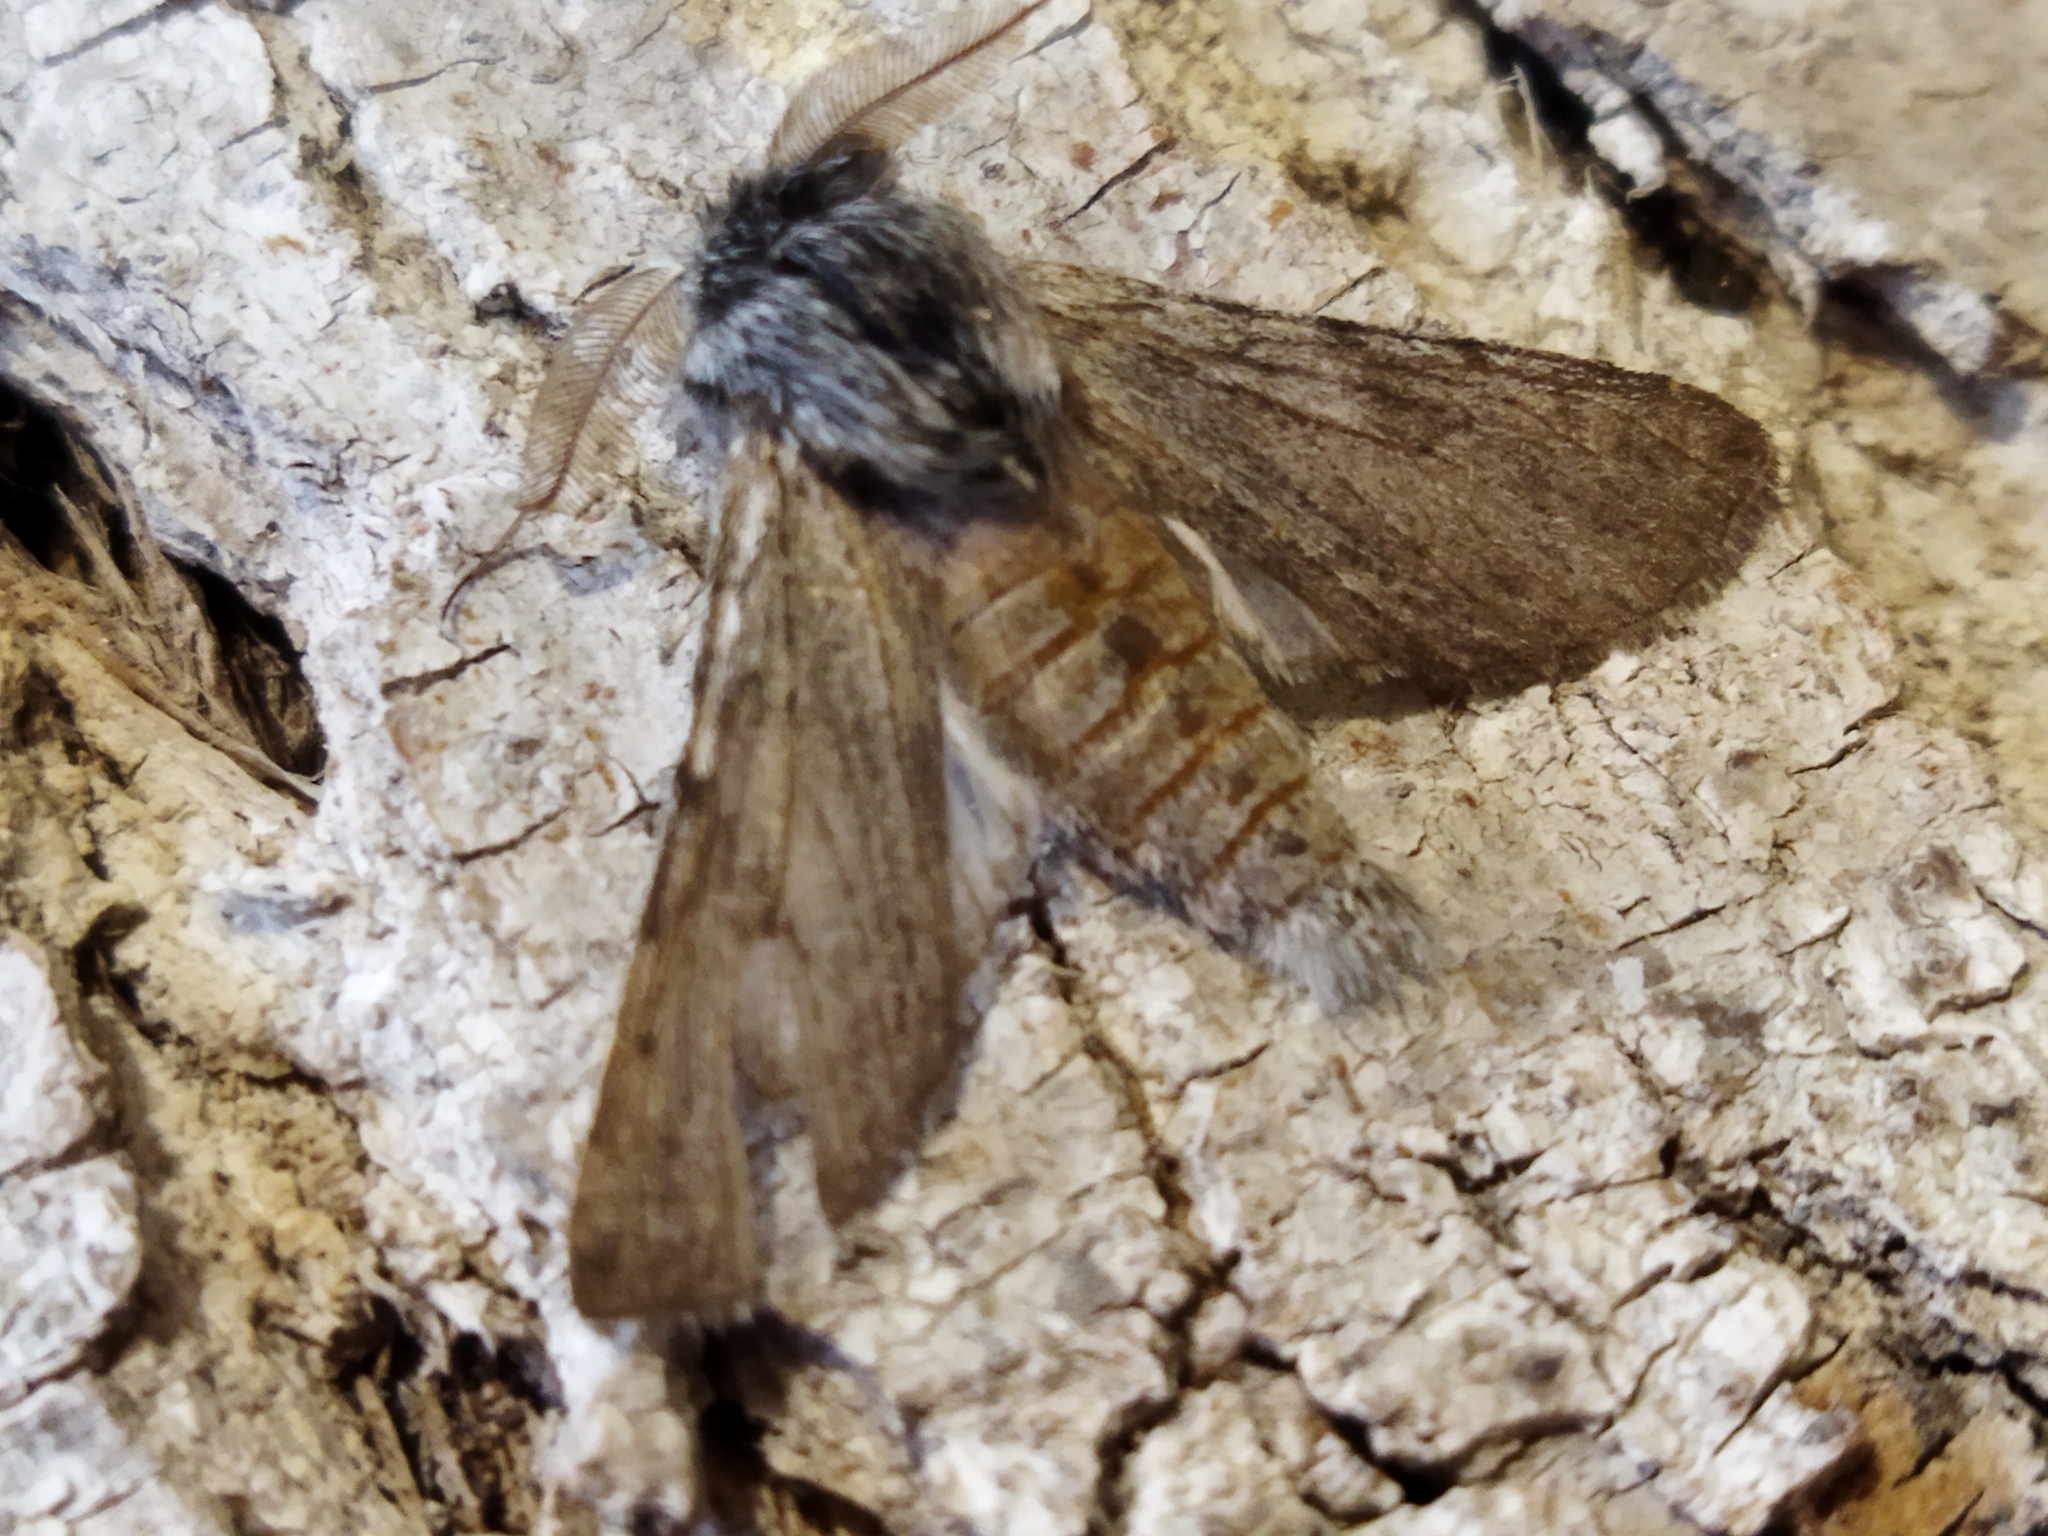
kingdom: Animalia
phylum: Arthropoda
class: Insecta
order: Lepidoptera
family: Notodontidae
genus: Dicranura
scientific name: Dicranura ulmi
